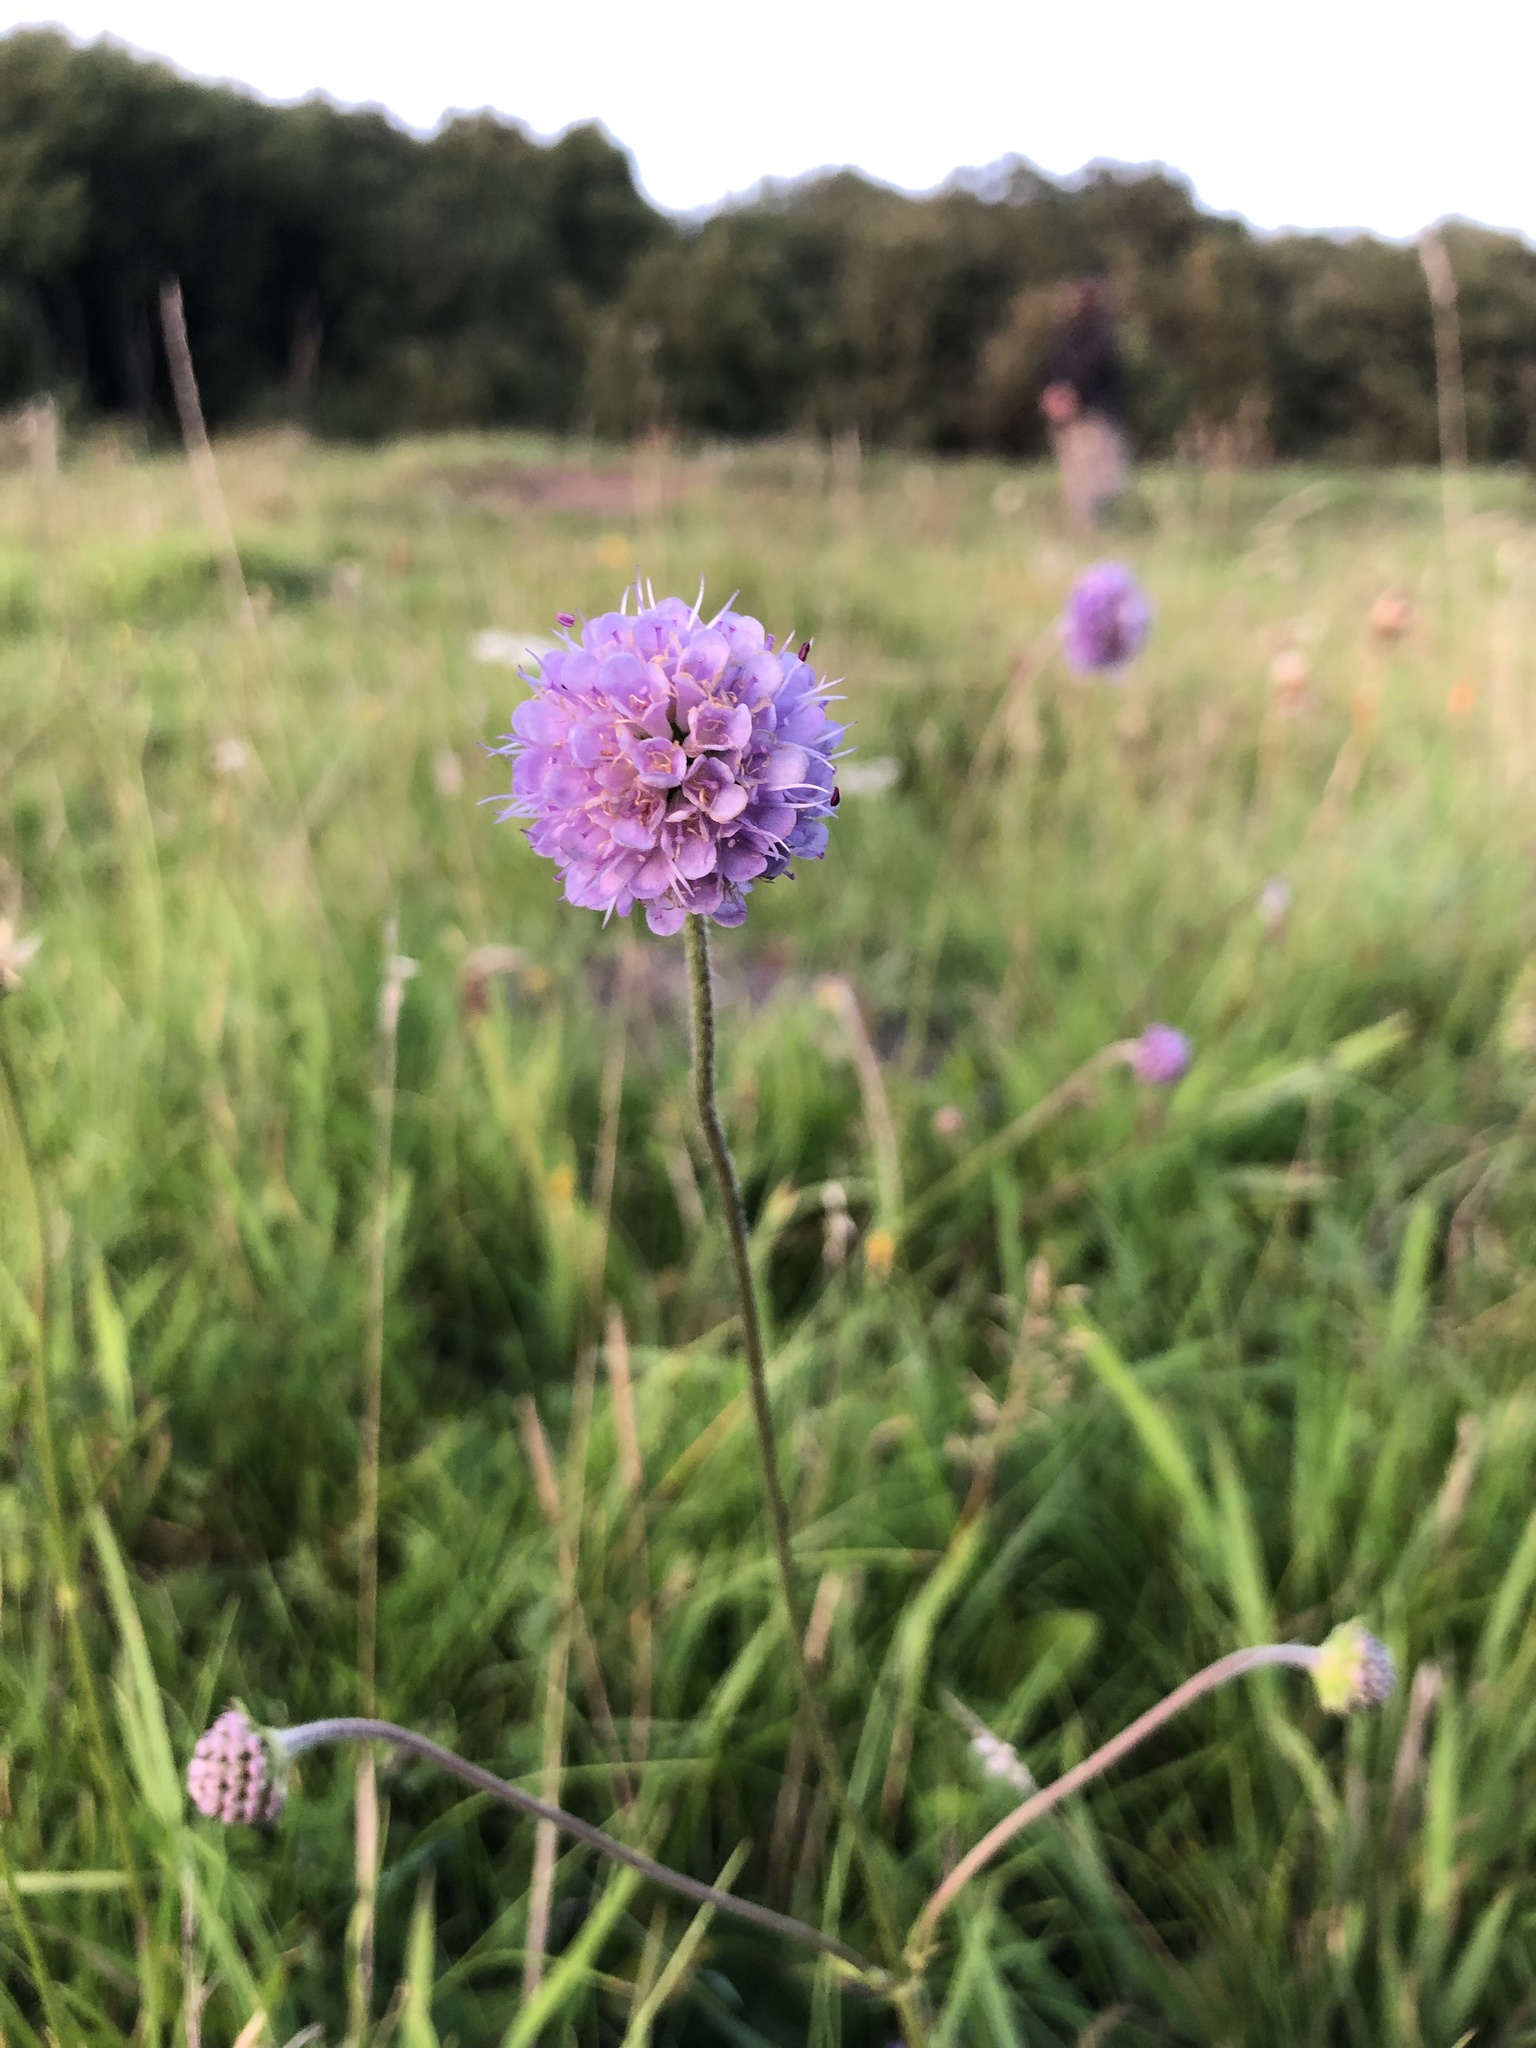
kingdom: Plantae
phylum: Tracheophyta
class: Magnoliopsida
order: Dipsacales
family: Caprifoliaceae
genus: Succisa
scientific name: Succisa pratensis
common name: Devil's-bit
